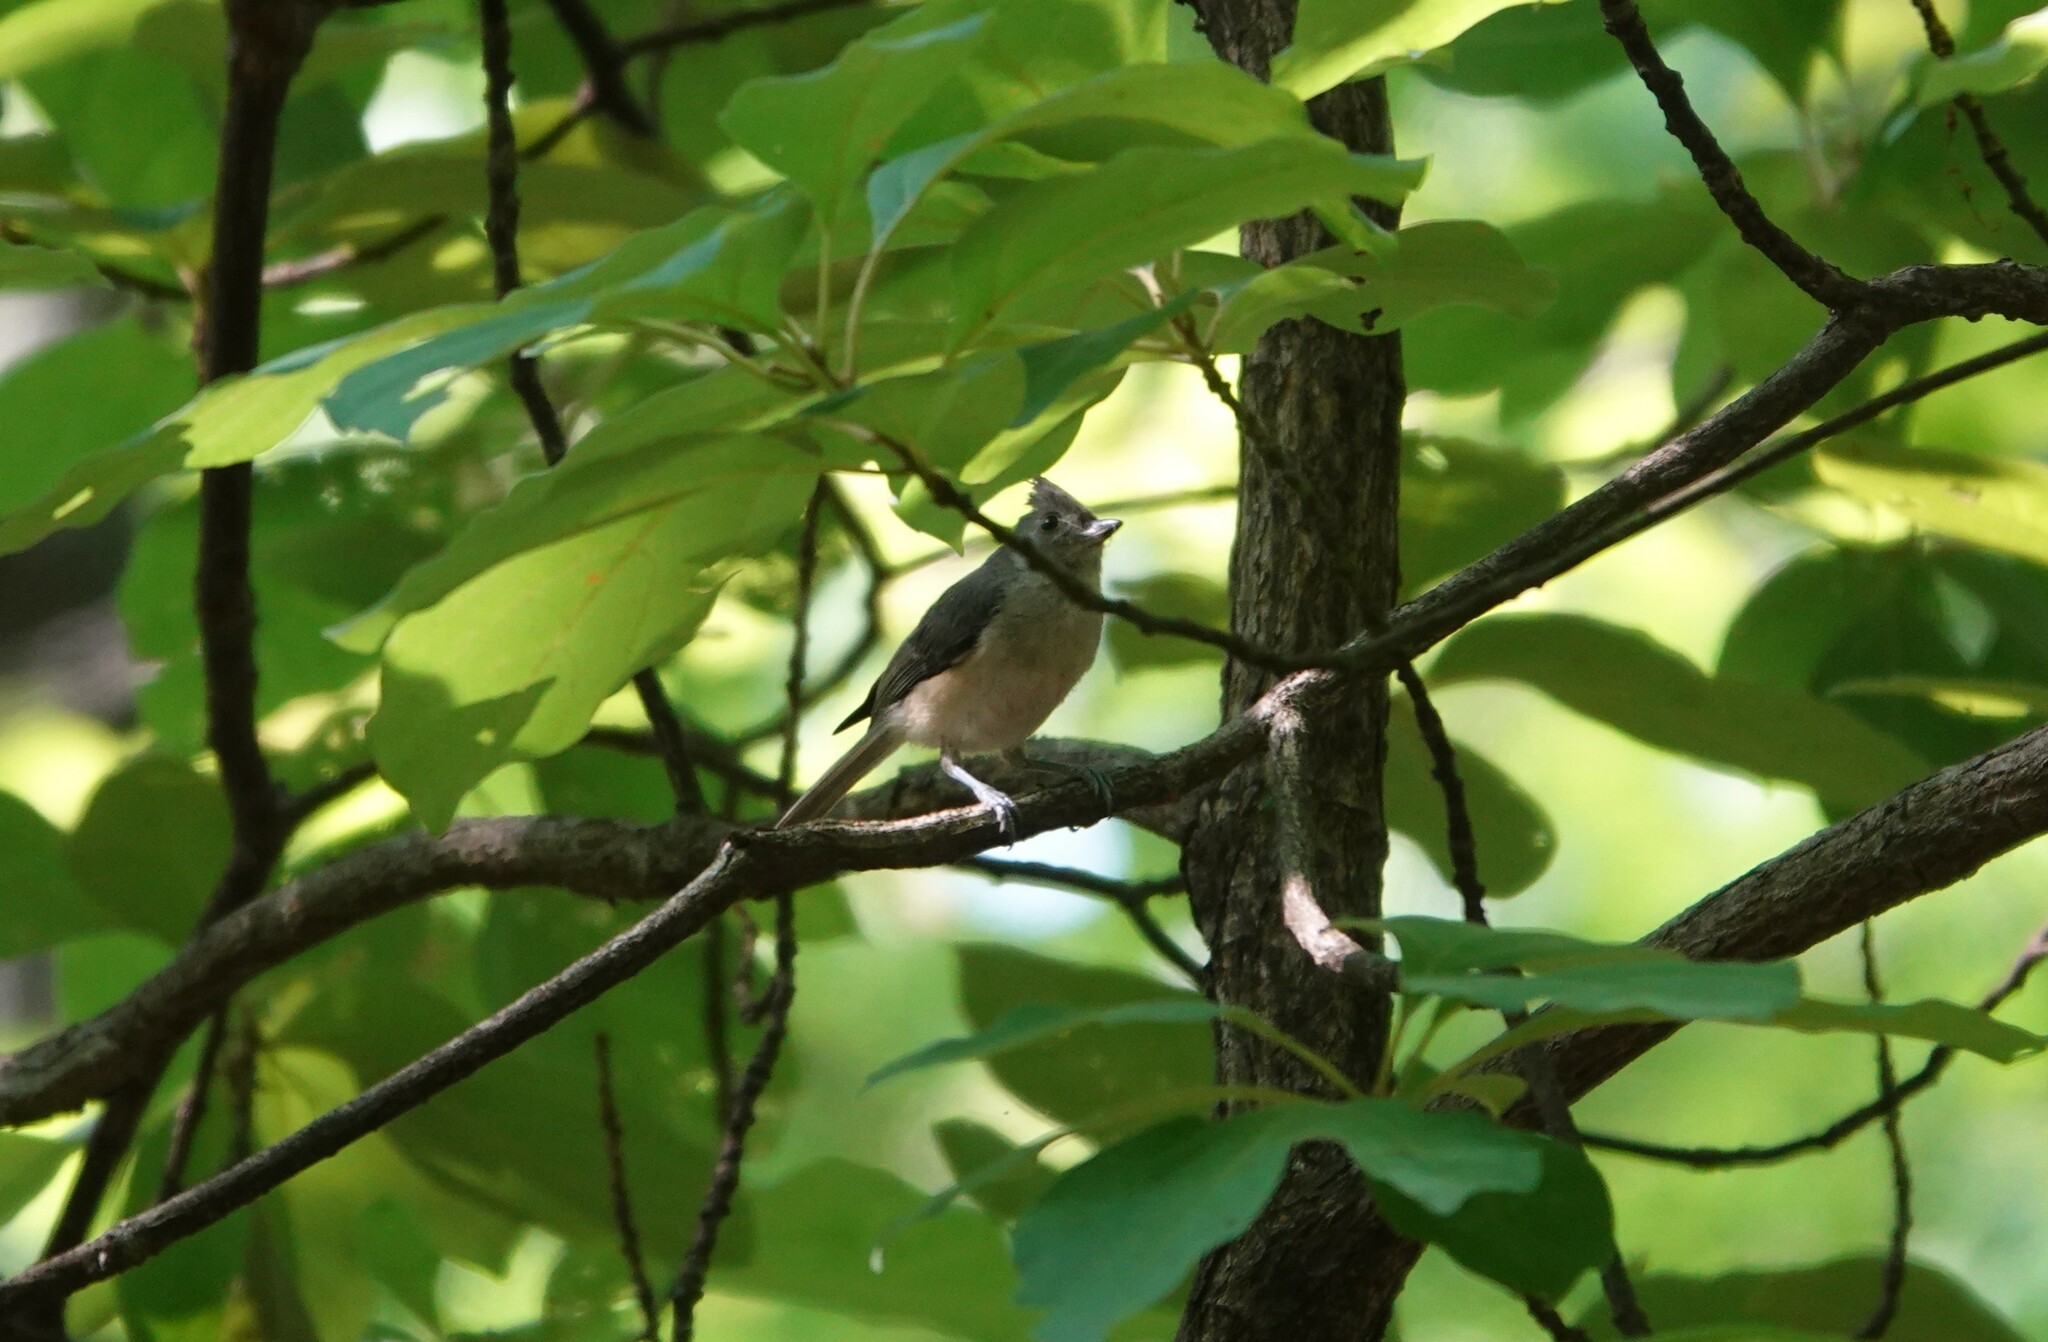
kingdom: Animalia
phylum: Chordata
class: Aves
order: Passeriformes
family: Paridae
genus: Baeolophus
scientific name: Baeolophus bicolor
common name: Tufted titmouse
